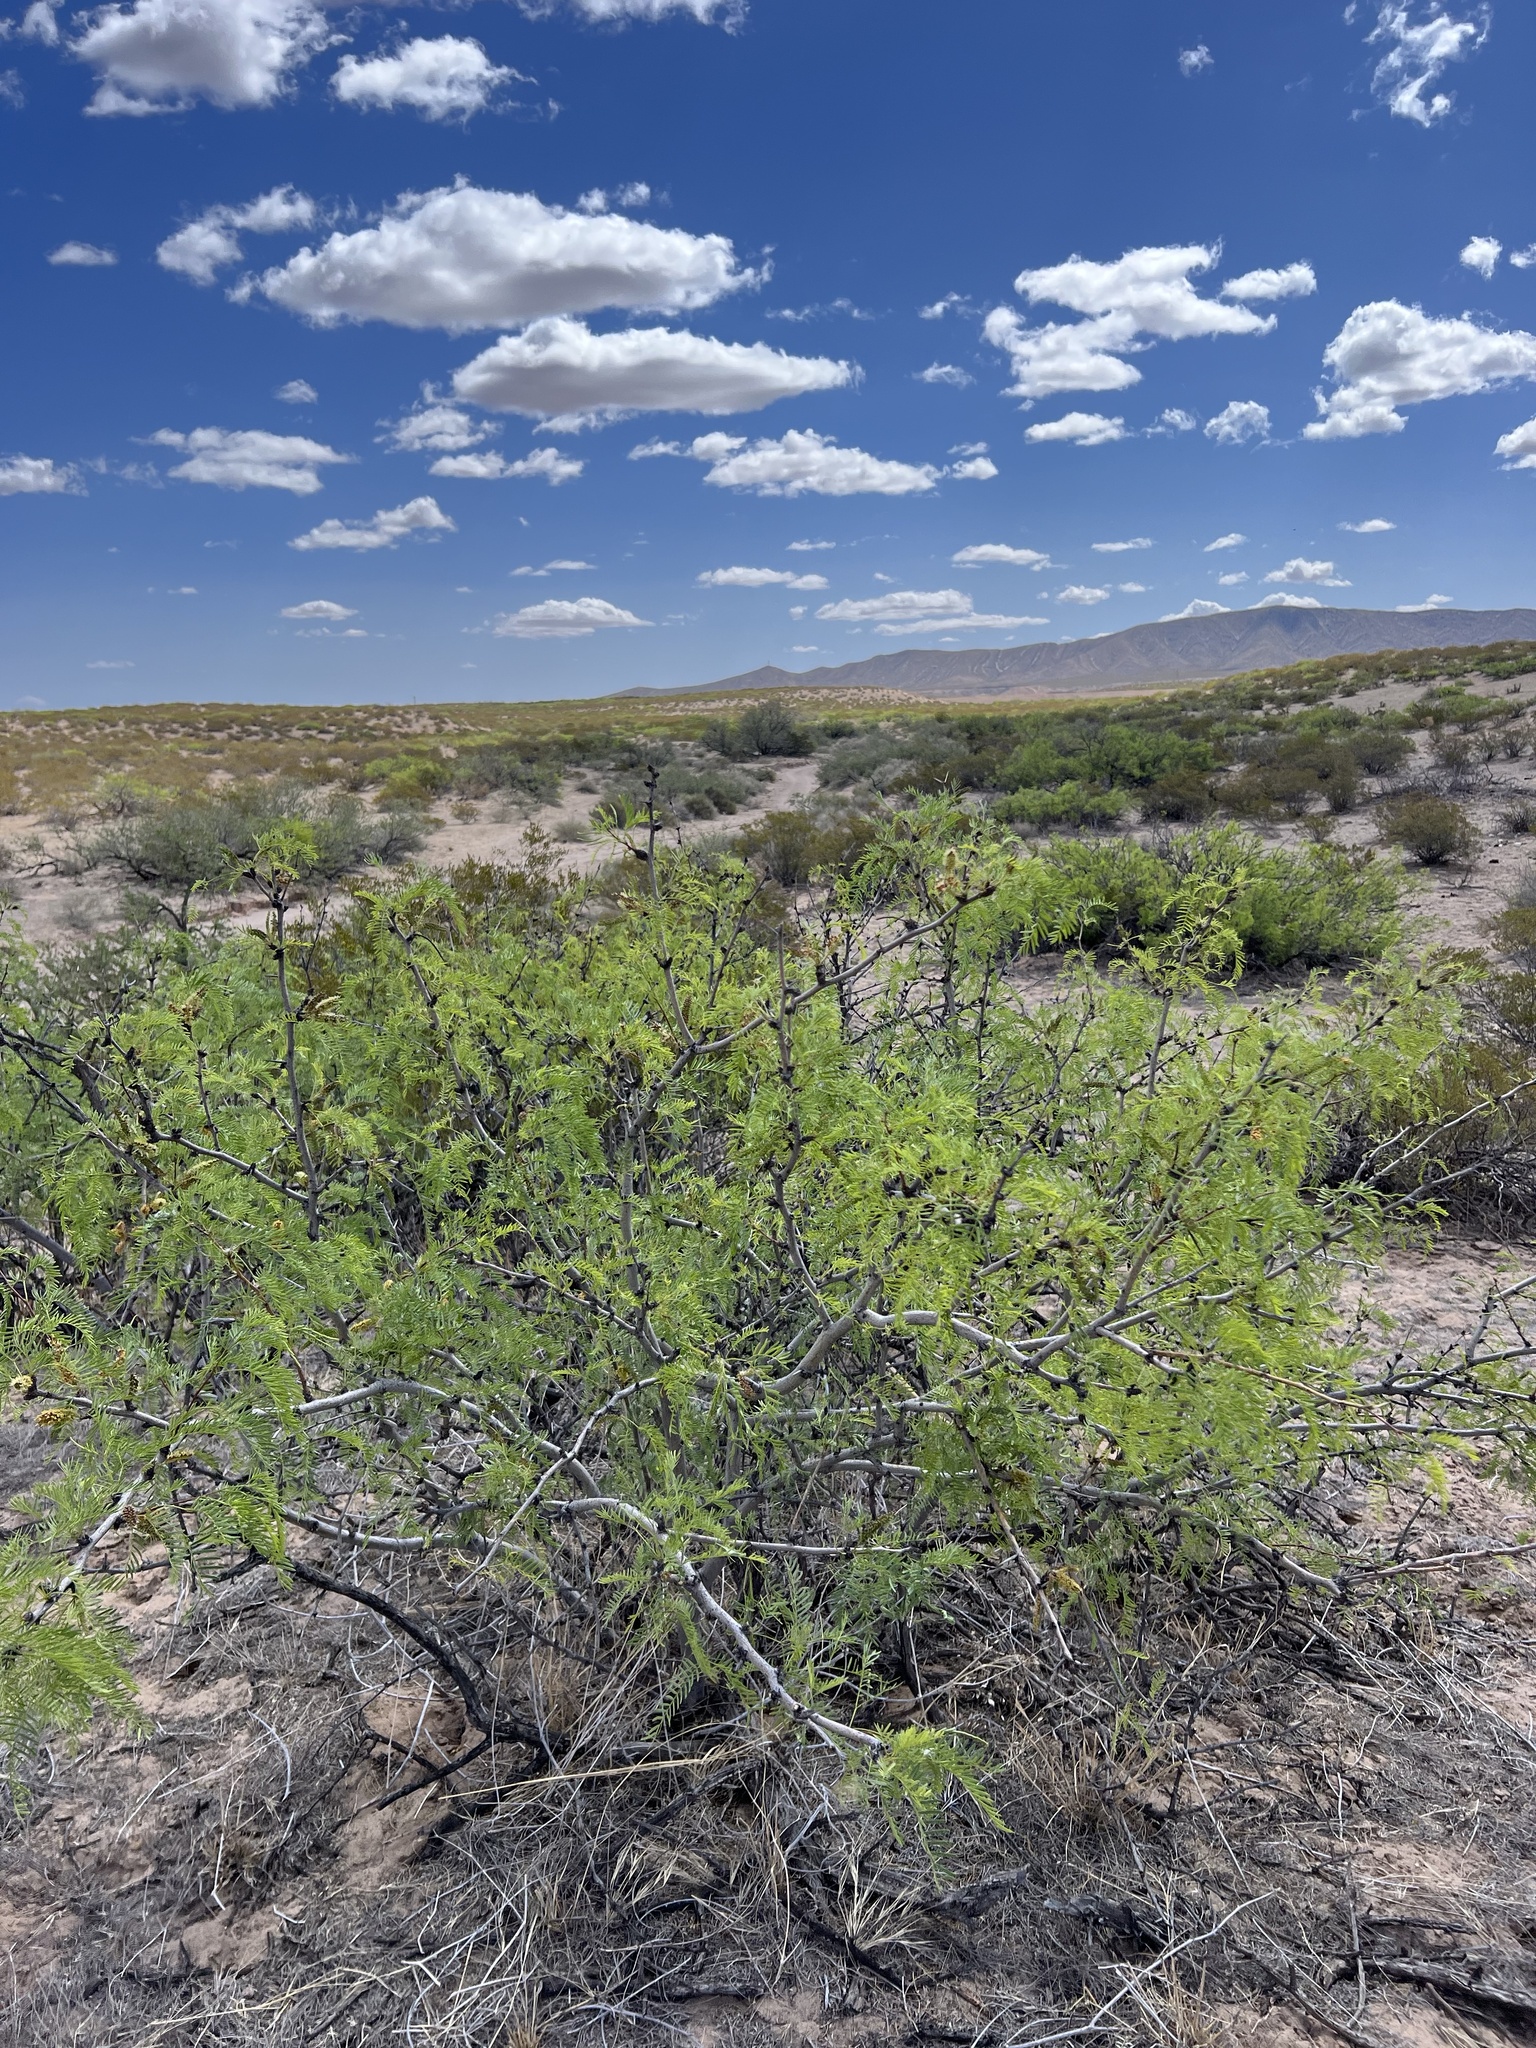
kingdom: Plantae
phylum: Tracheophyta
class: Magnoliopsida
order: Fabales
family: Fabaceae
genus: Prosopis
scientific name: Prosopis glandulosa
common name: Honey mesquite
